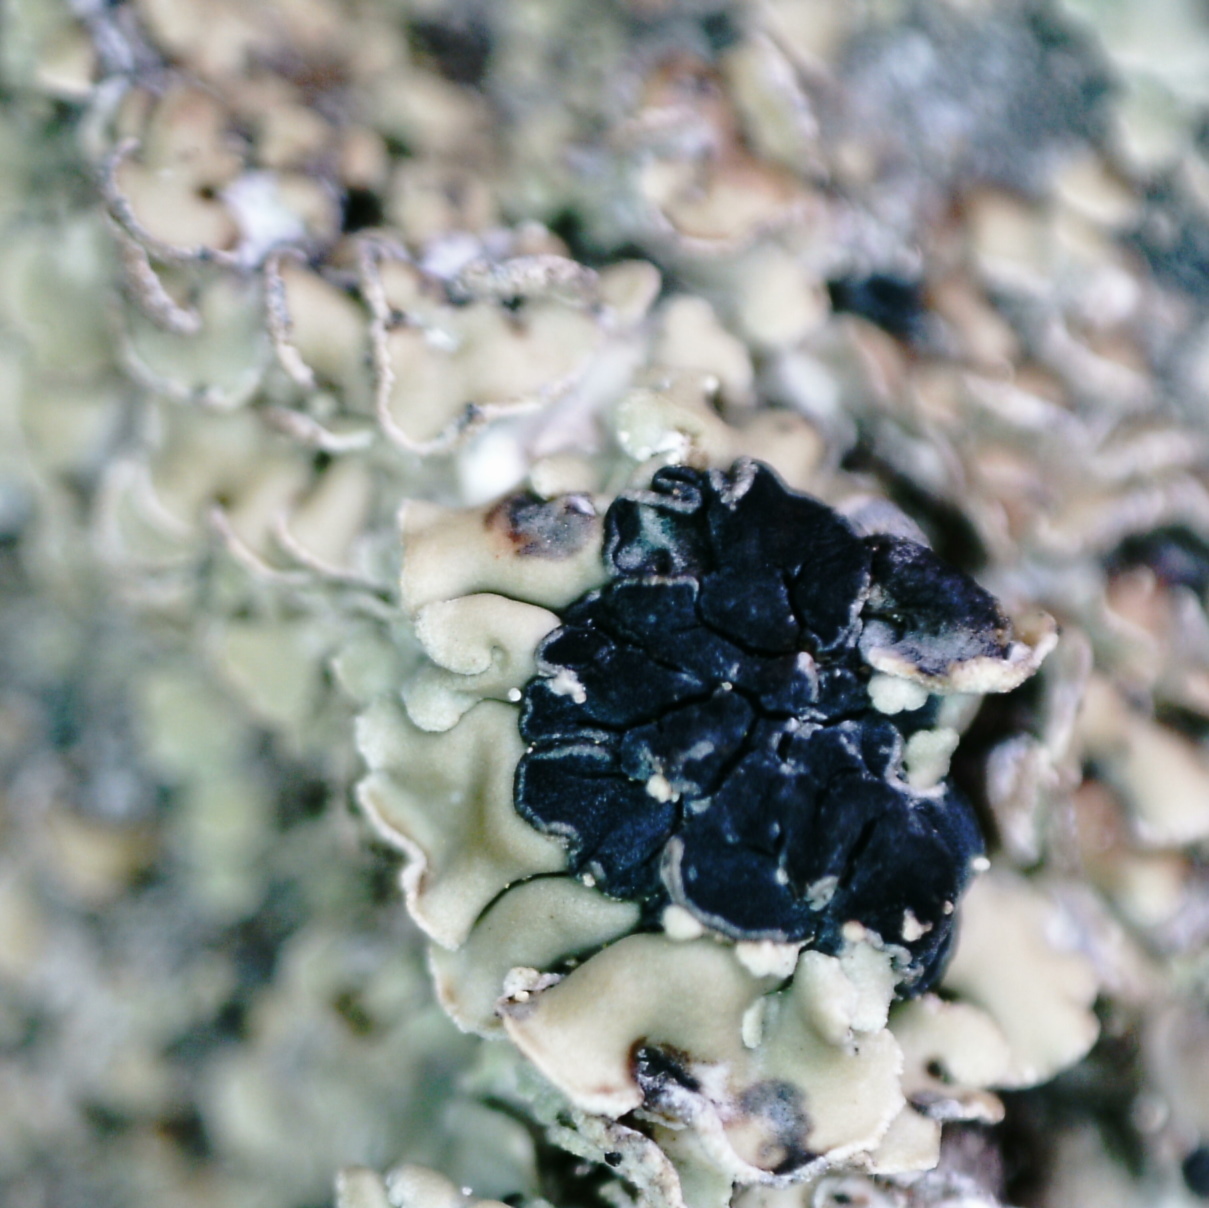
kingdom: Fungi
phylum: Ascomycota
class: Lecanoromycetes
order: Umbilicariales
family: Ophioparmaceae
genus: Hypocenomyce
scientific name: Hypocenomyce scalaris
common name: Common clam lichen
